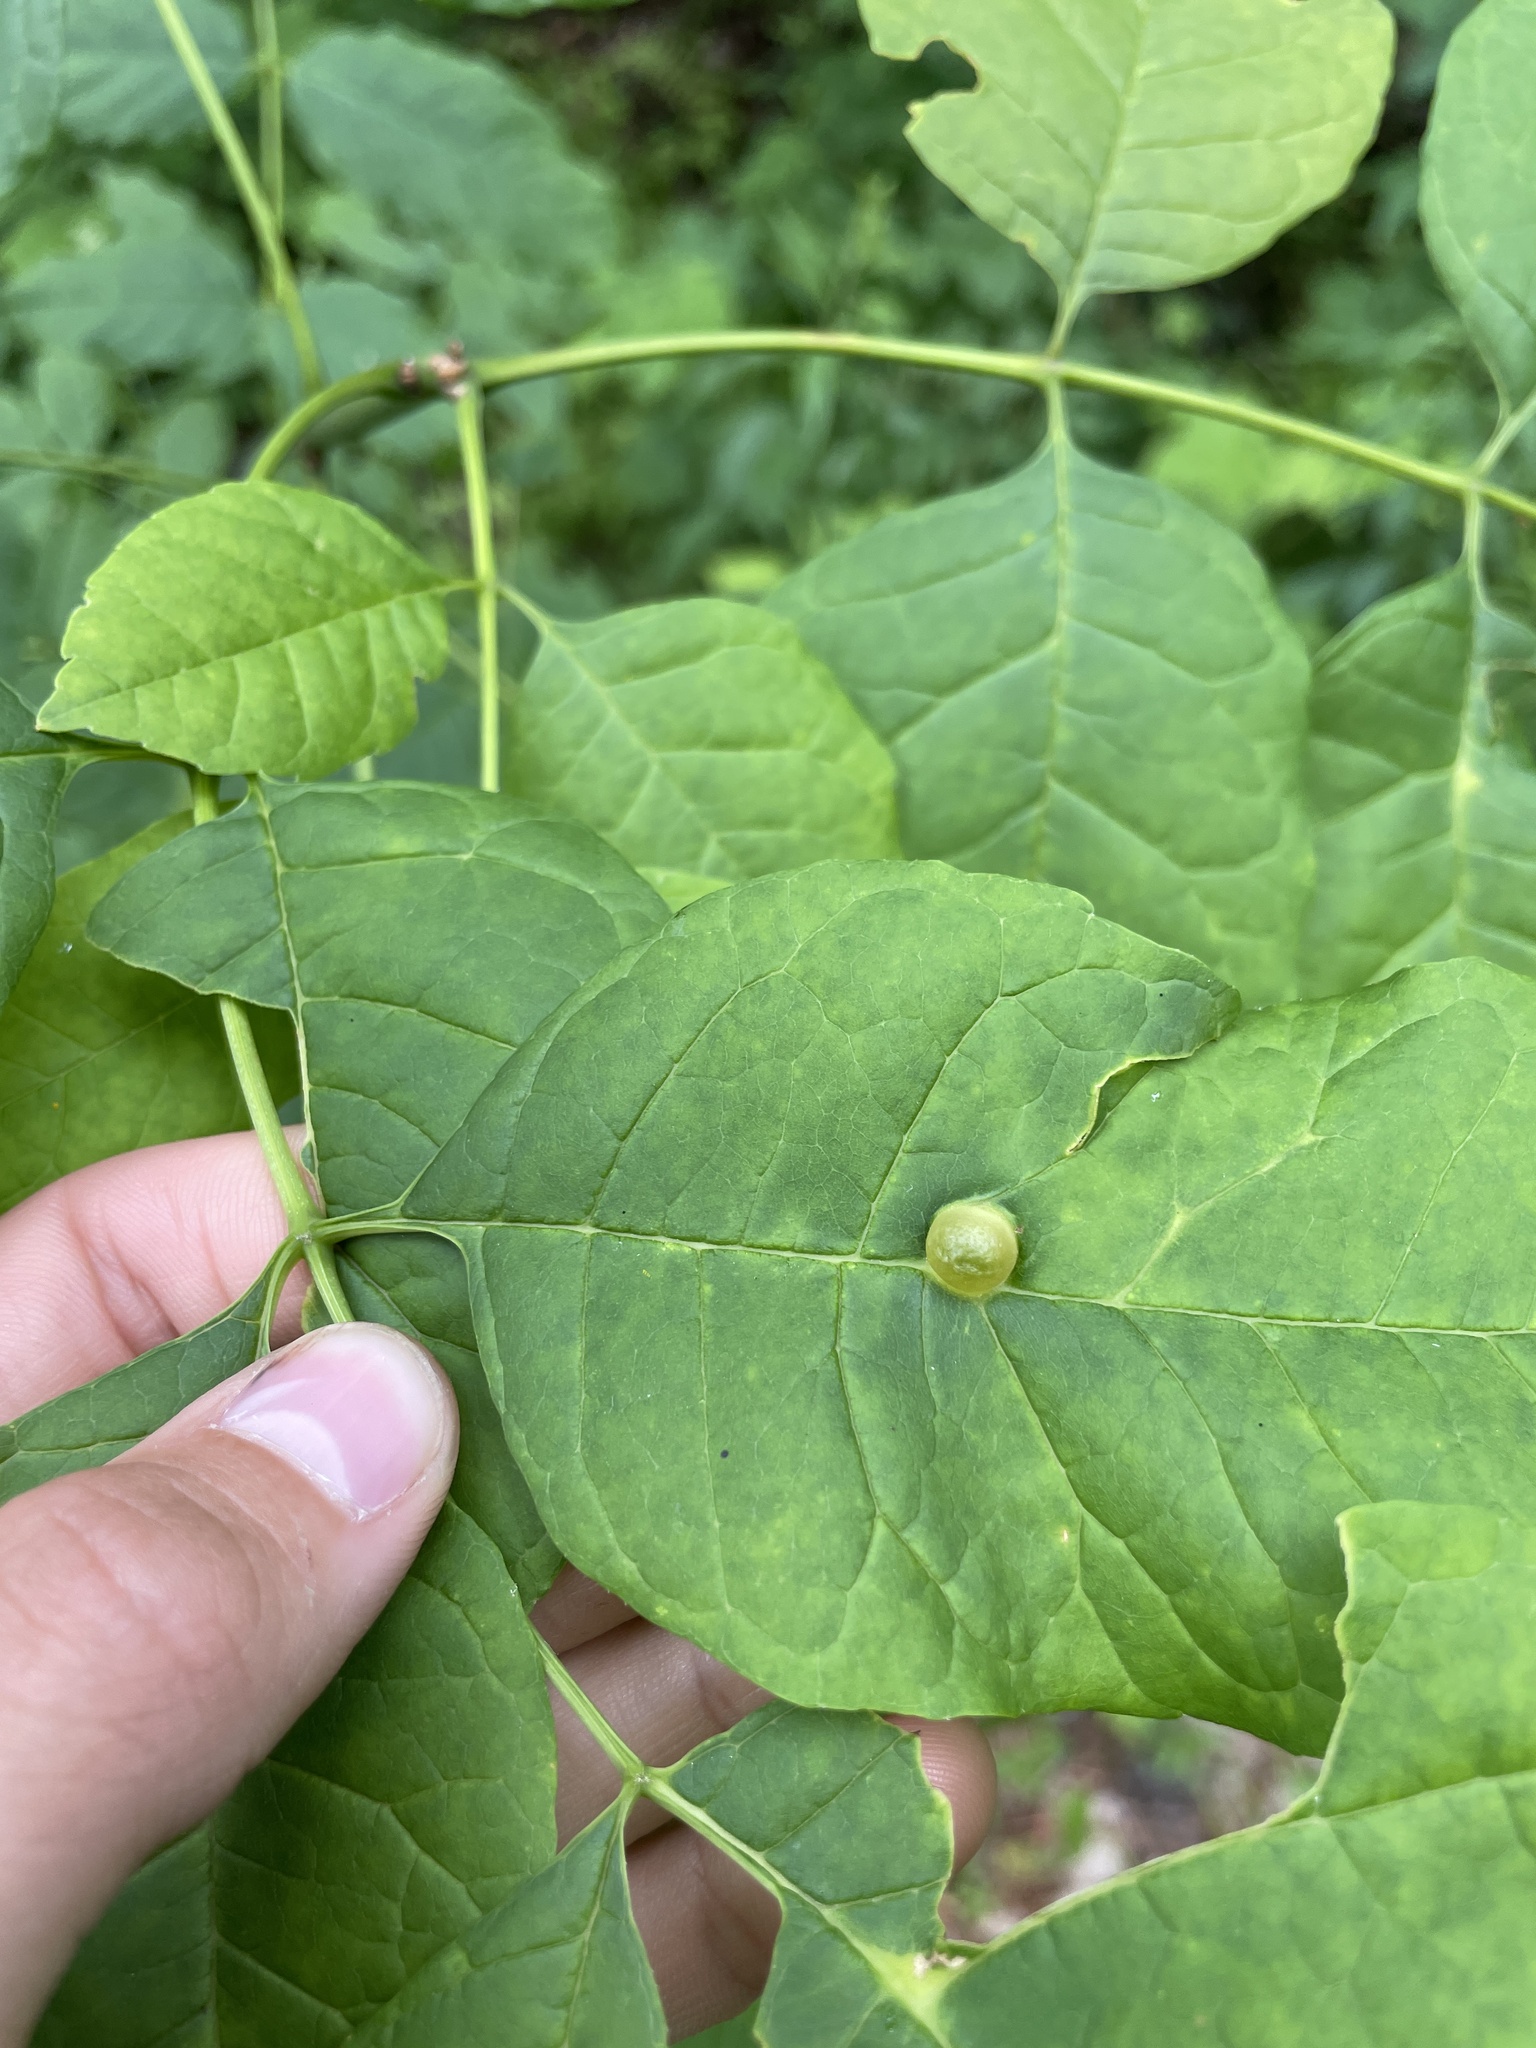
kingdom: Animalia
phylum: Arthropoda
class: Insecta
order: Diptera
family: Cecidomyiidae
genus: Dasineura
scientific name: Dasineura pellex
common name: Ash bullet gall midge
